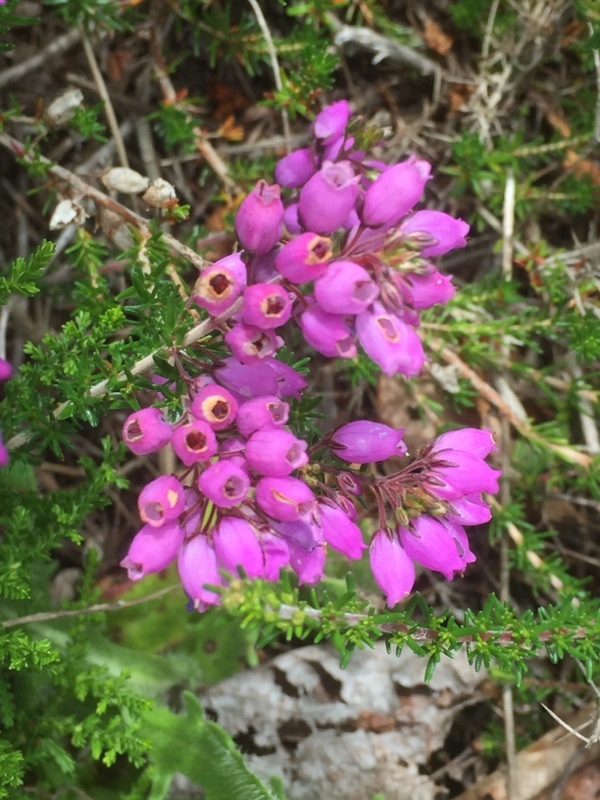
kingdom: Plantae
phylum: Tracheophyta
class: Magnoliopsida
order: Ericales
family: Ericaceae
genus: Erica
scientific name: Erica cinerea
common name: Bell heather
